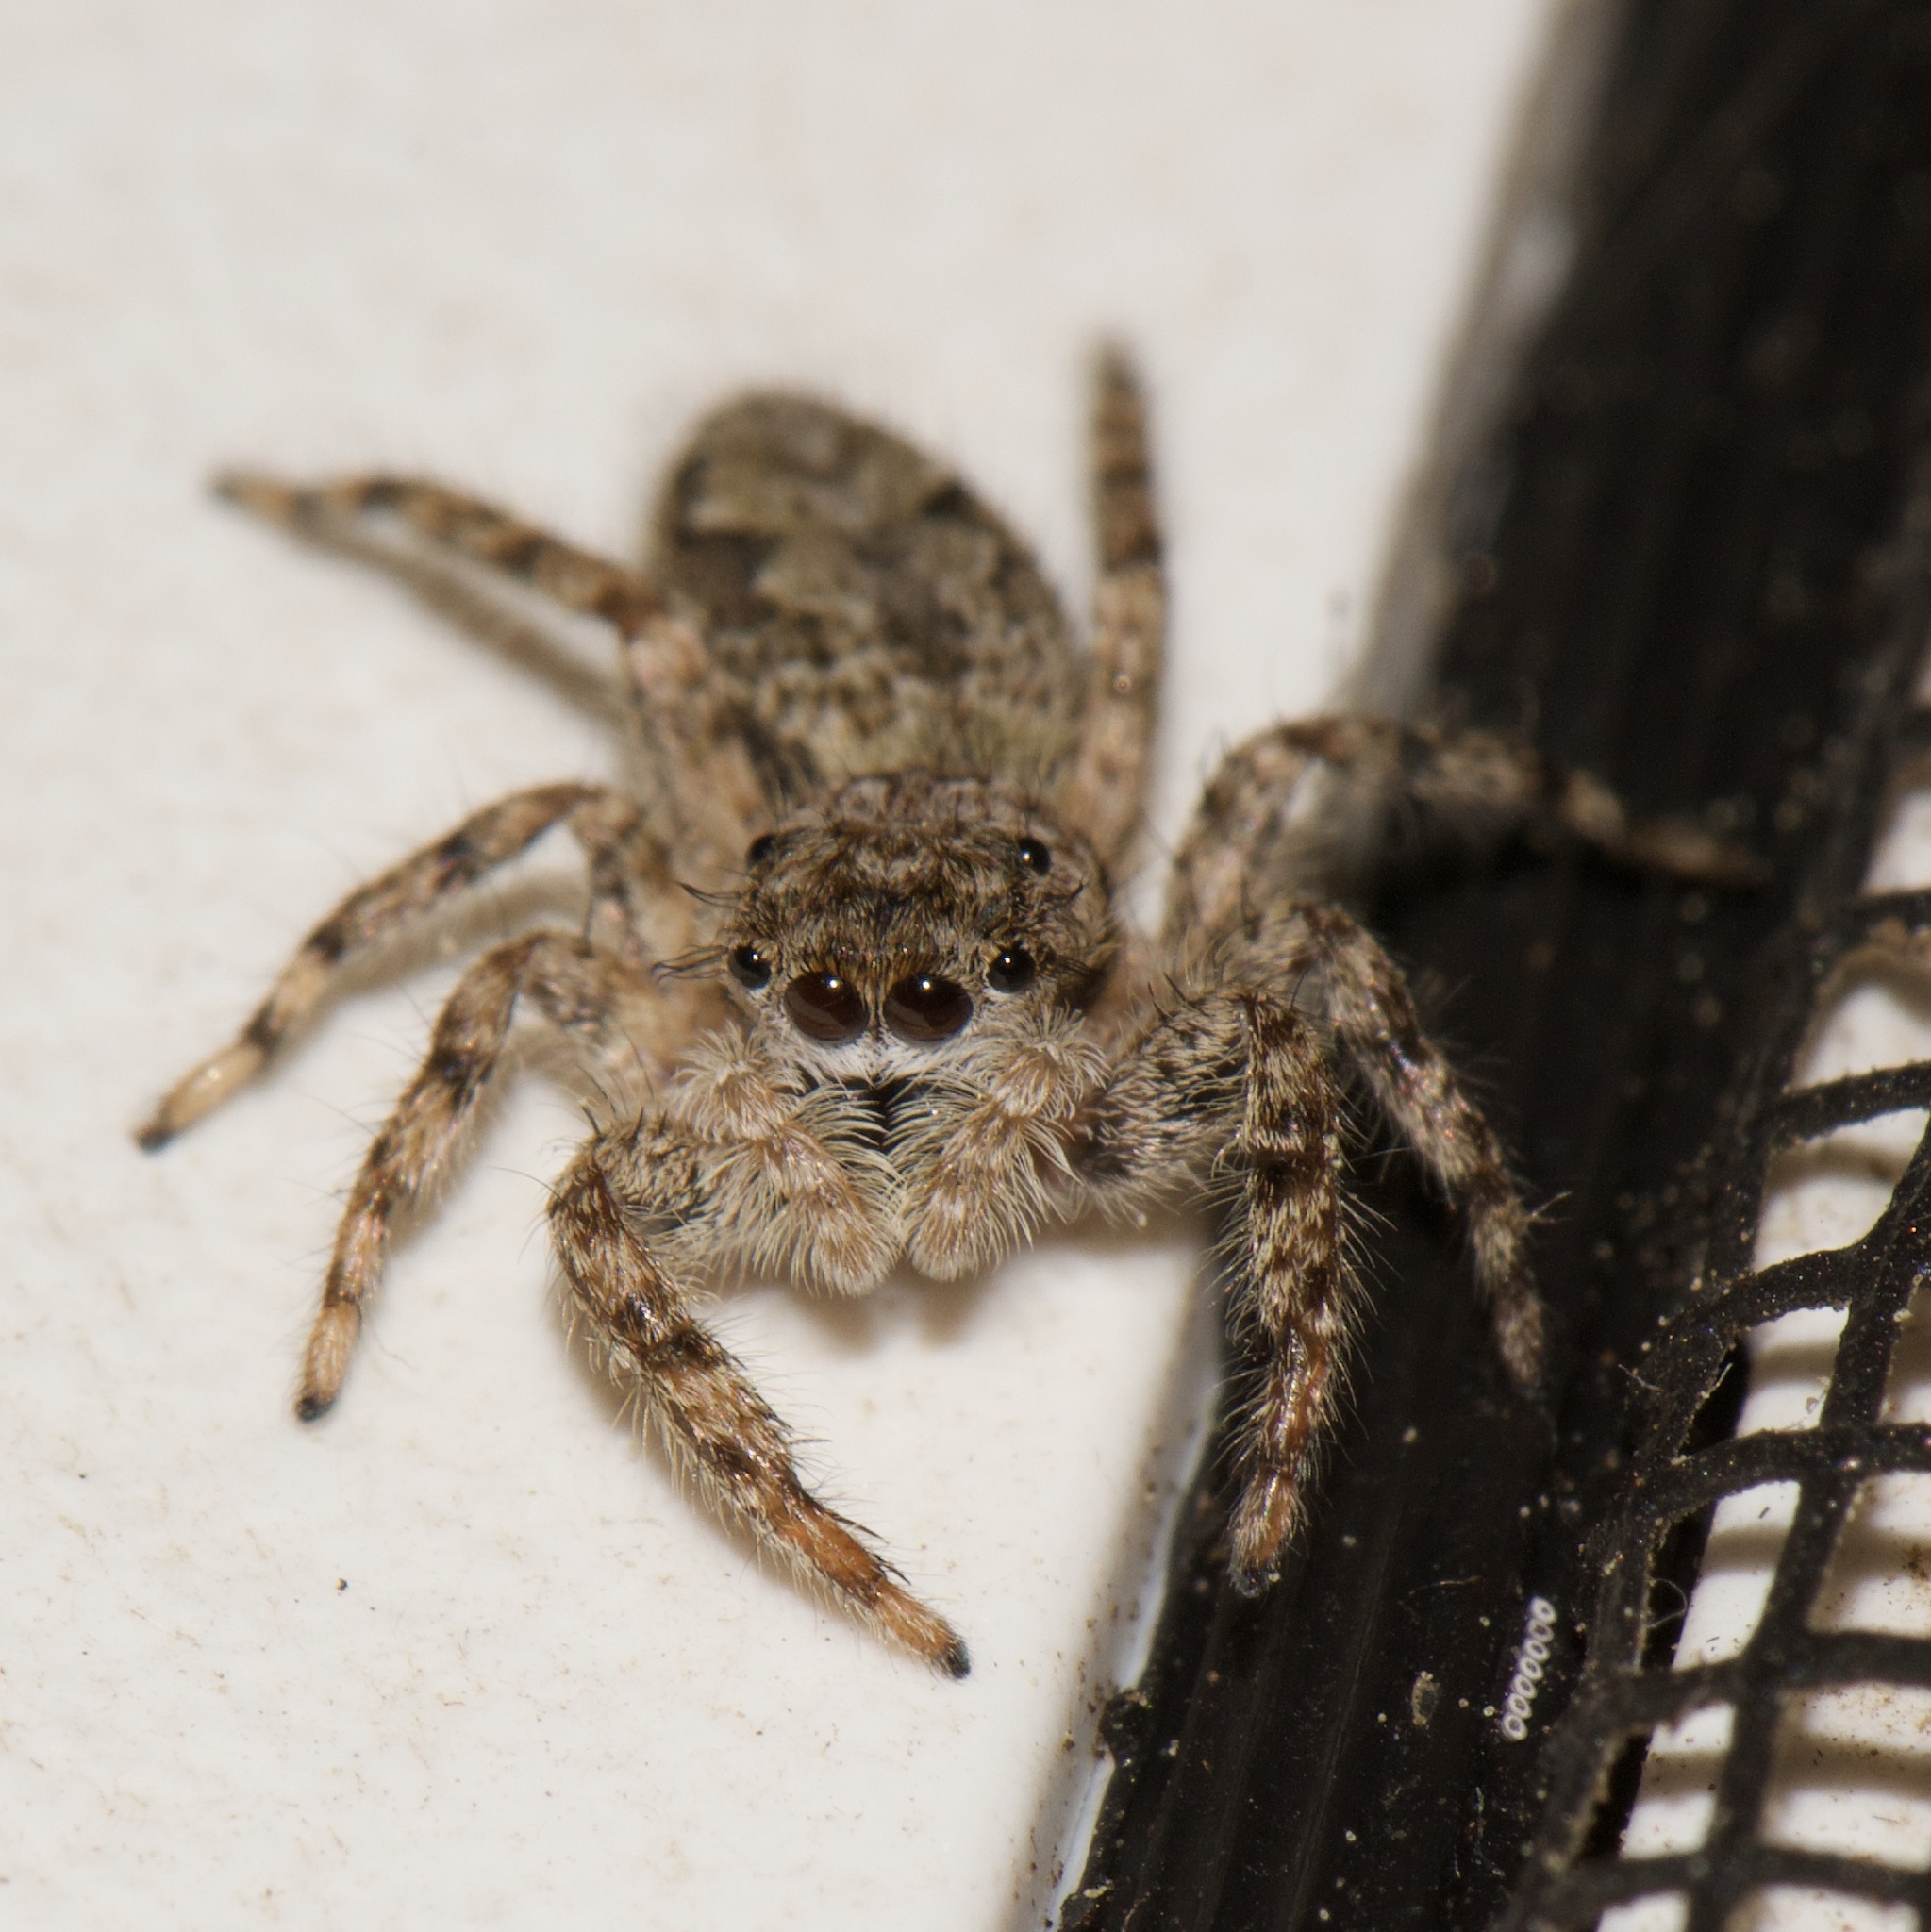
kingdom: Animalia
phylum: Arthropoda
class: Arachnida
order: Araneae
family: Salticidae
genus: Platycryptus
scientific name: Platycryptus undatus
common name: Tan jumping spider
